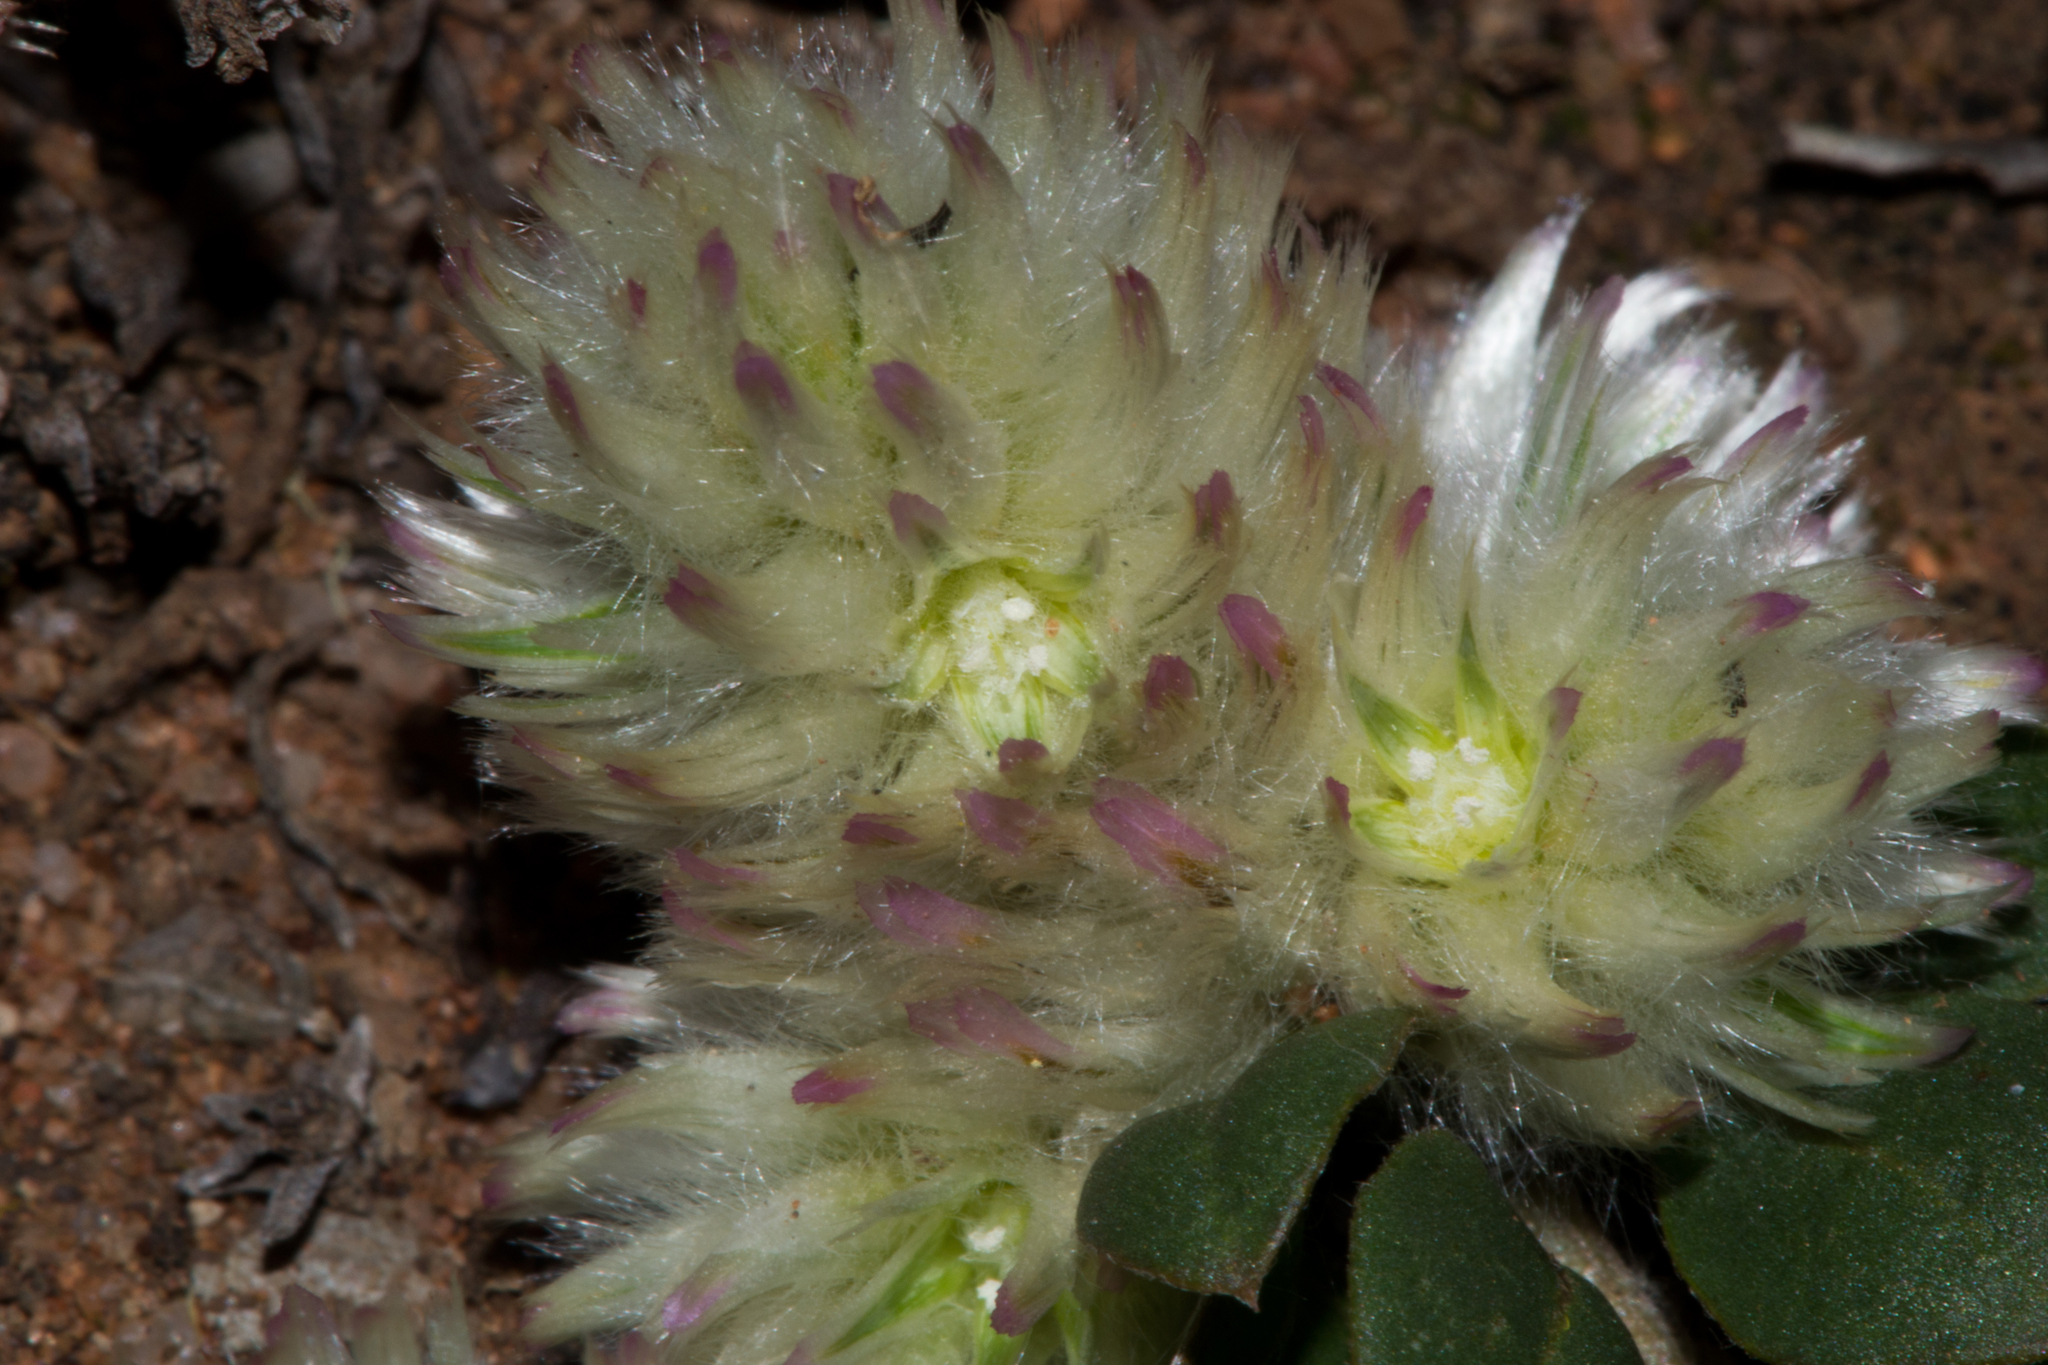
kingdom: Plantae
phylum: Tracheophyta
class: Magnoliopsida
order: Caryophyllales
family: Amaranthaceae
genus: Ptilotus
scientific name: Ptilotus holosericeus
